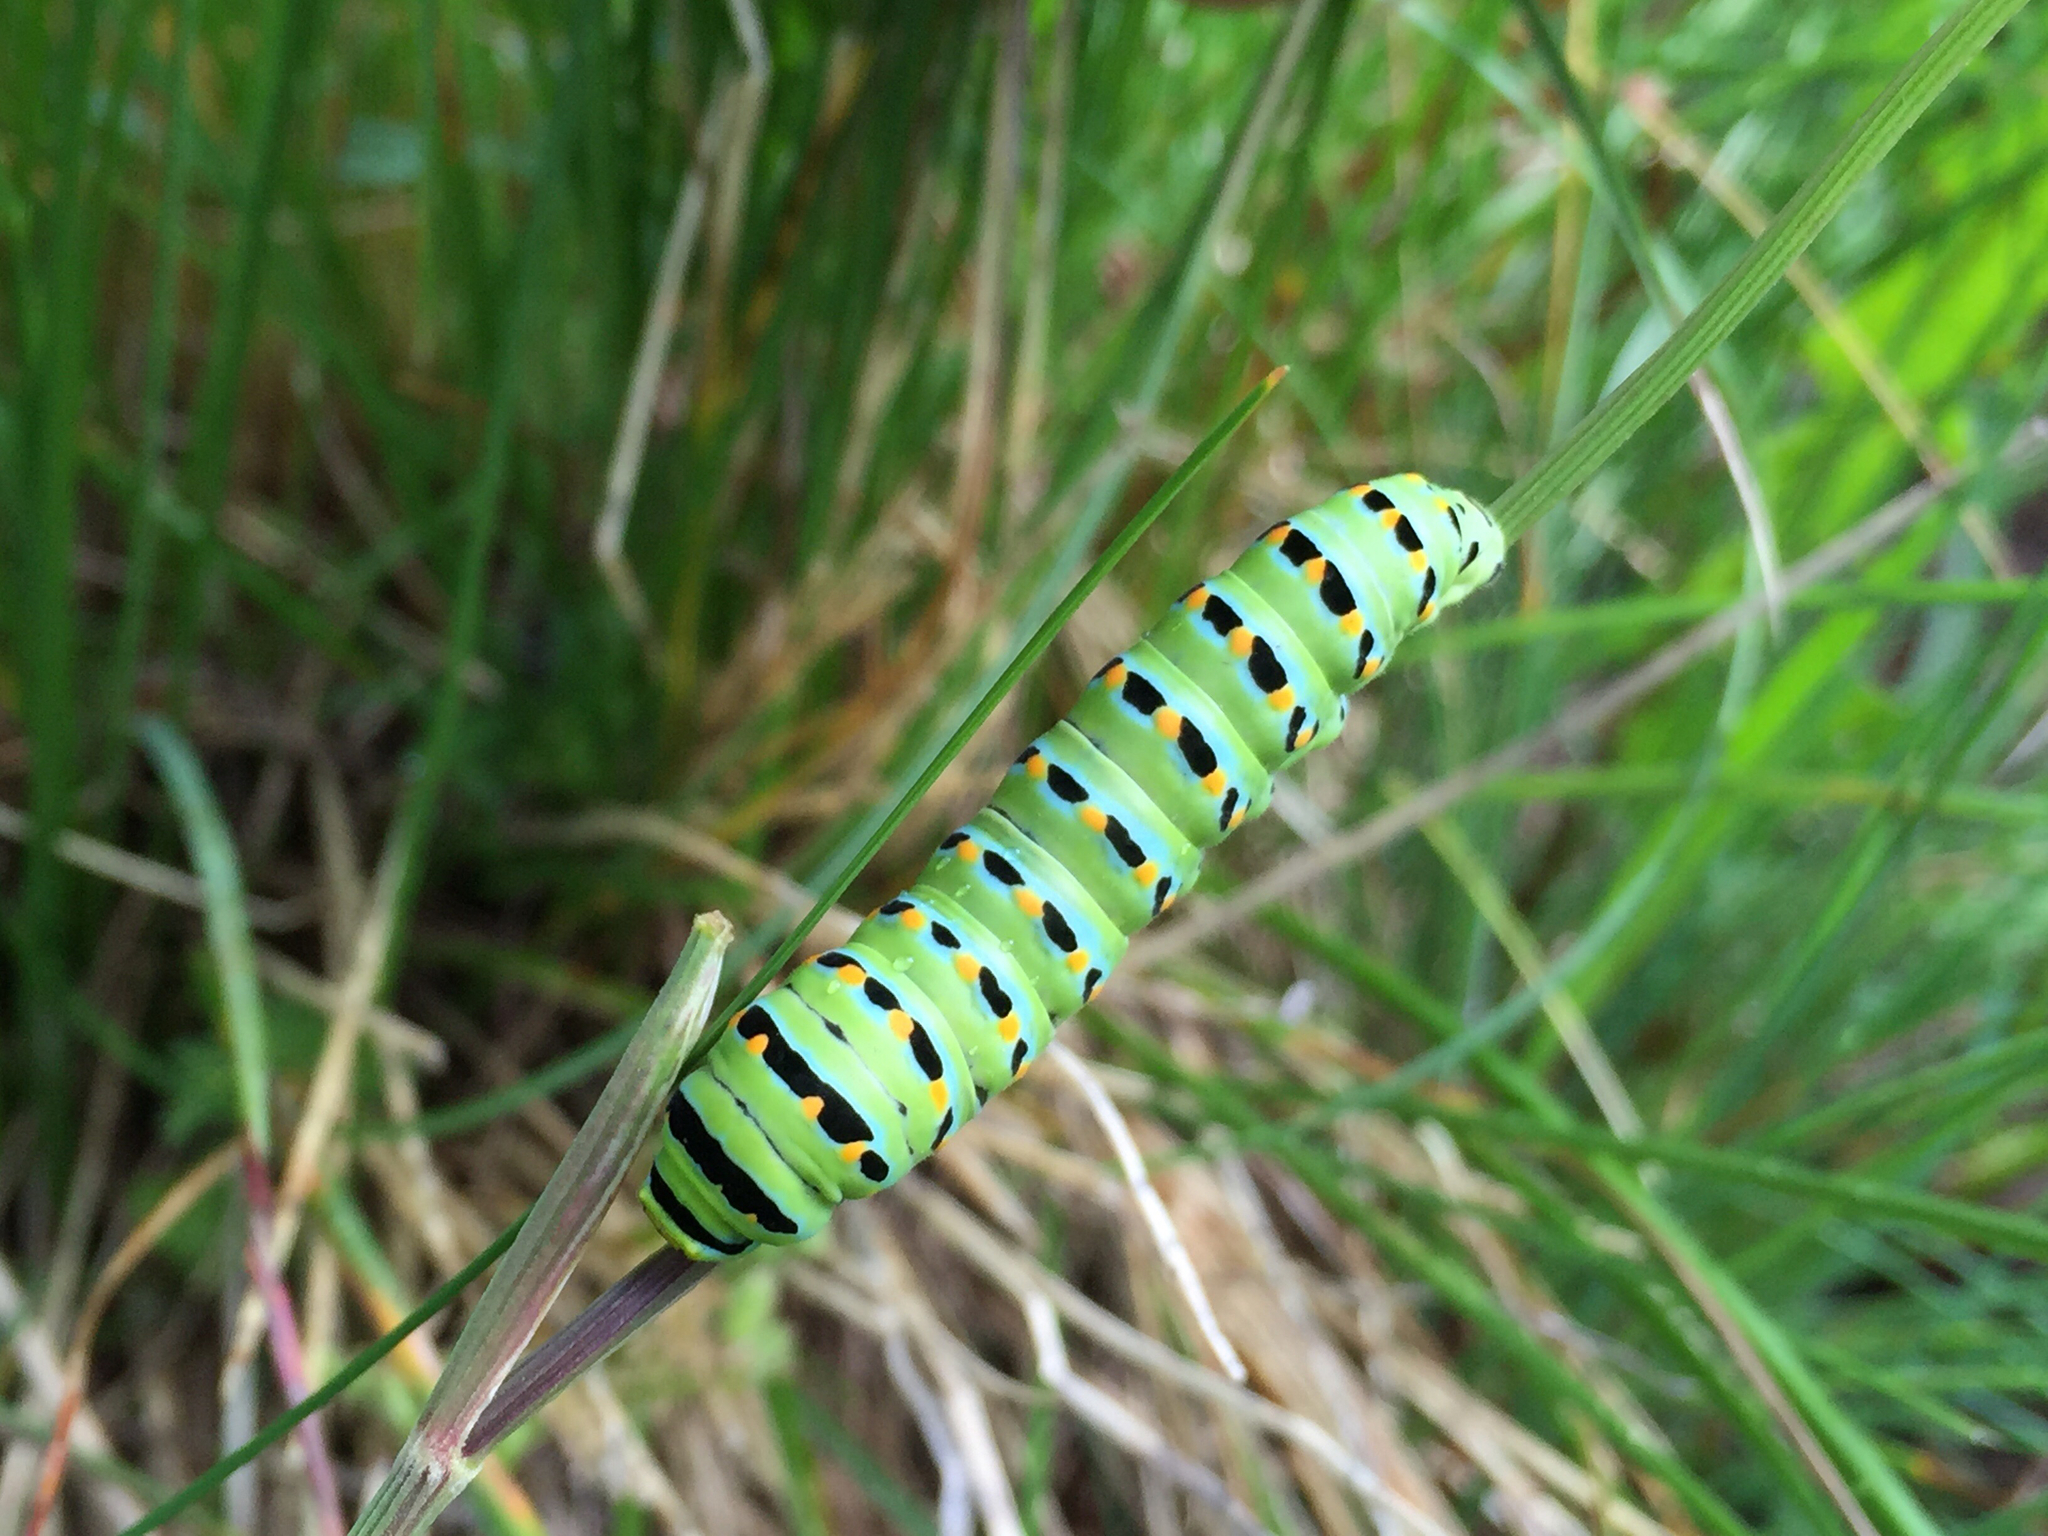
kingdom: Animalia
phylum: Arthropoda
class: Insecta
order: Lepidoptera
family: Papilionidae
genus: Papilio
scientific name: Papilio zelicaon
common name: Anise swallowtail
